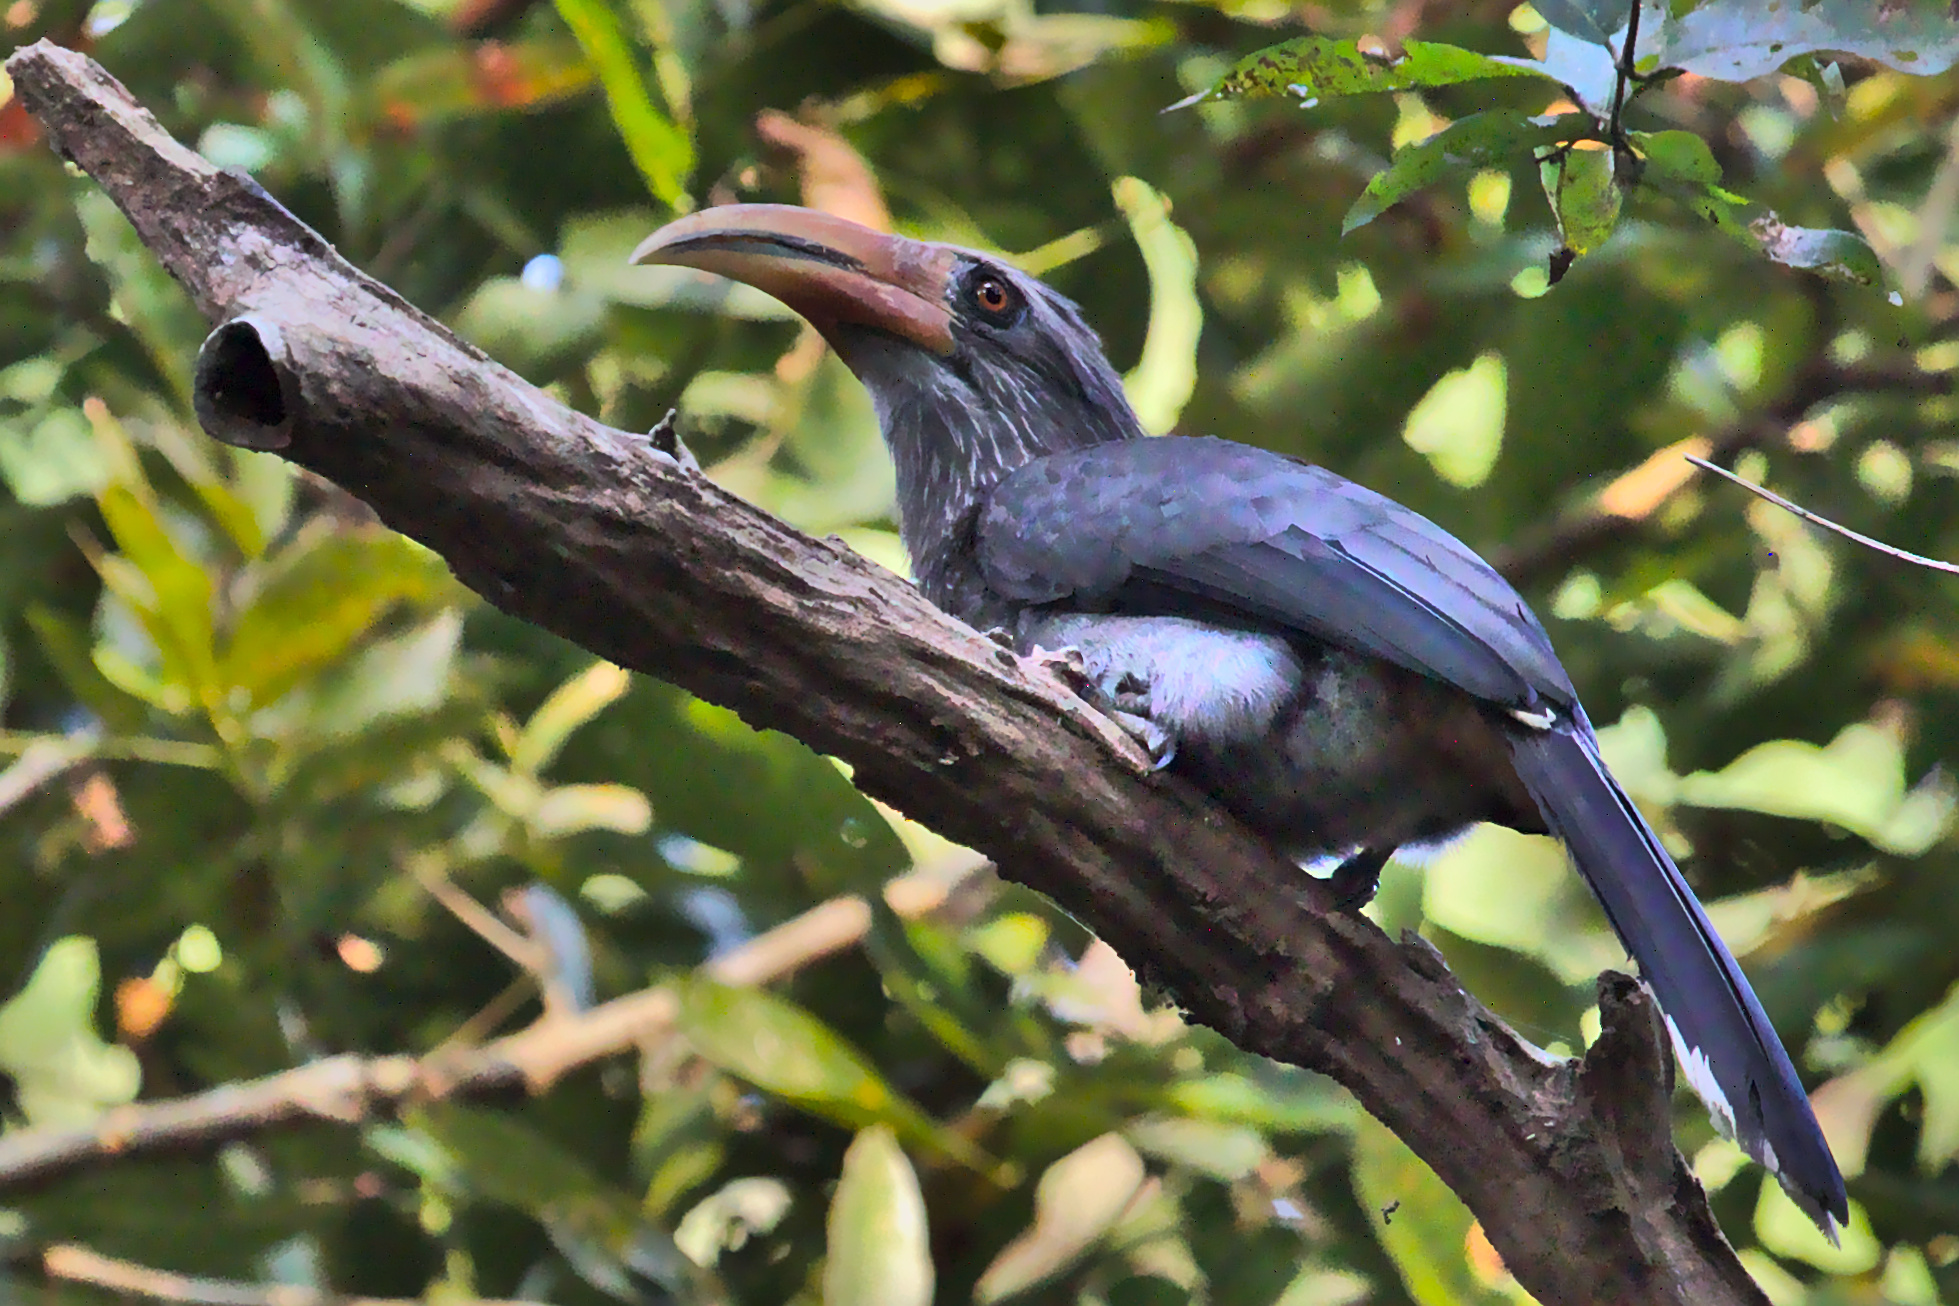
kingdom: Animalia
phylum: Chordata
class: Aves
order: Bucerotiformes
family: Bucerotidae
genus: Ocyceros
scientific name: Ocyceros griseus
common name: Malabar grey hornbill
